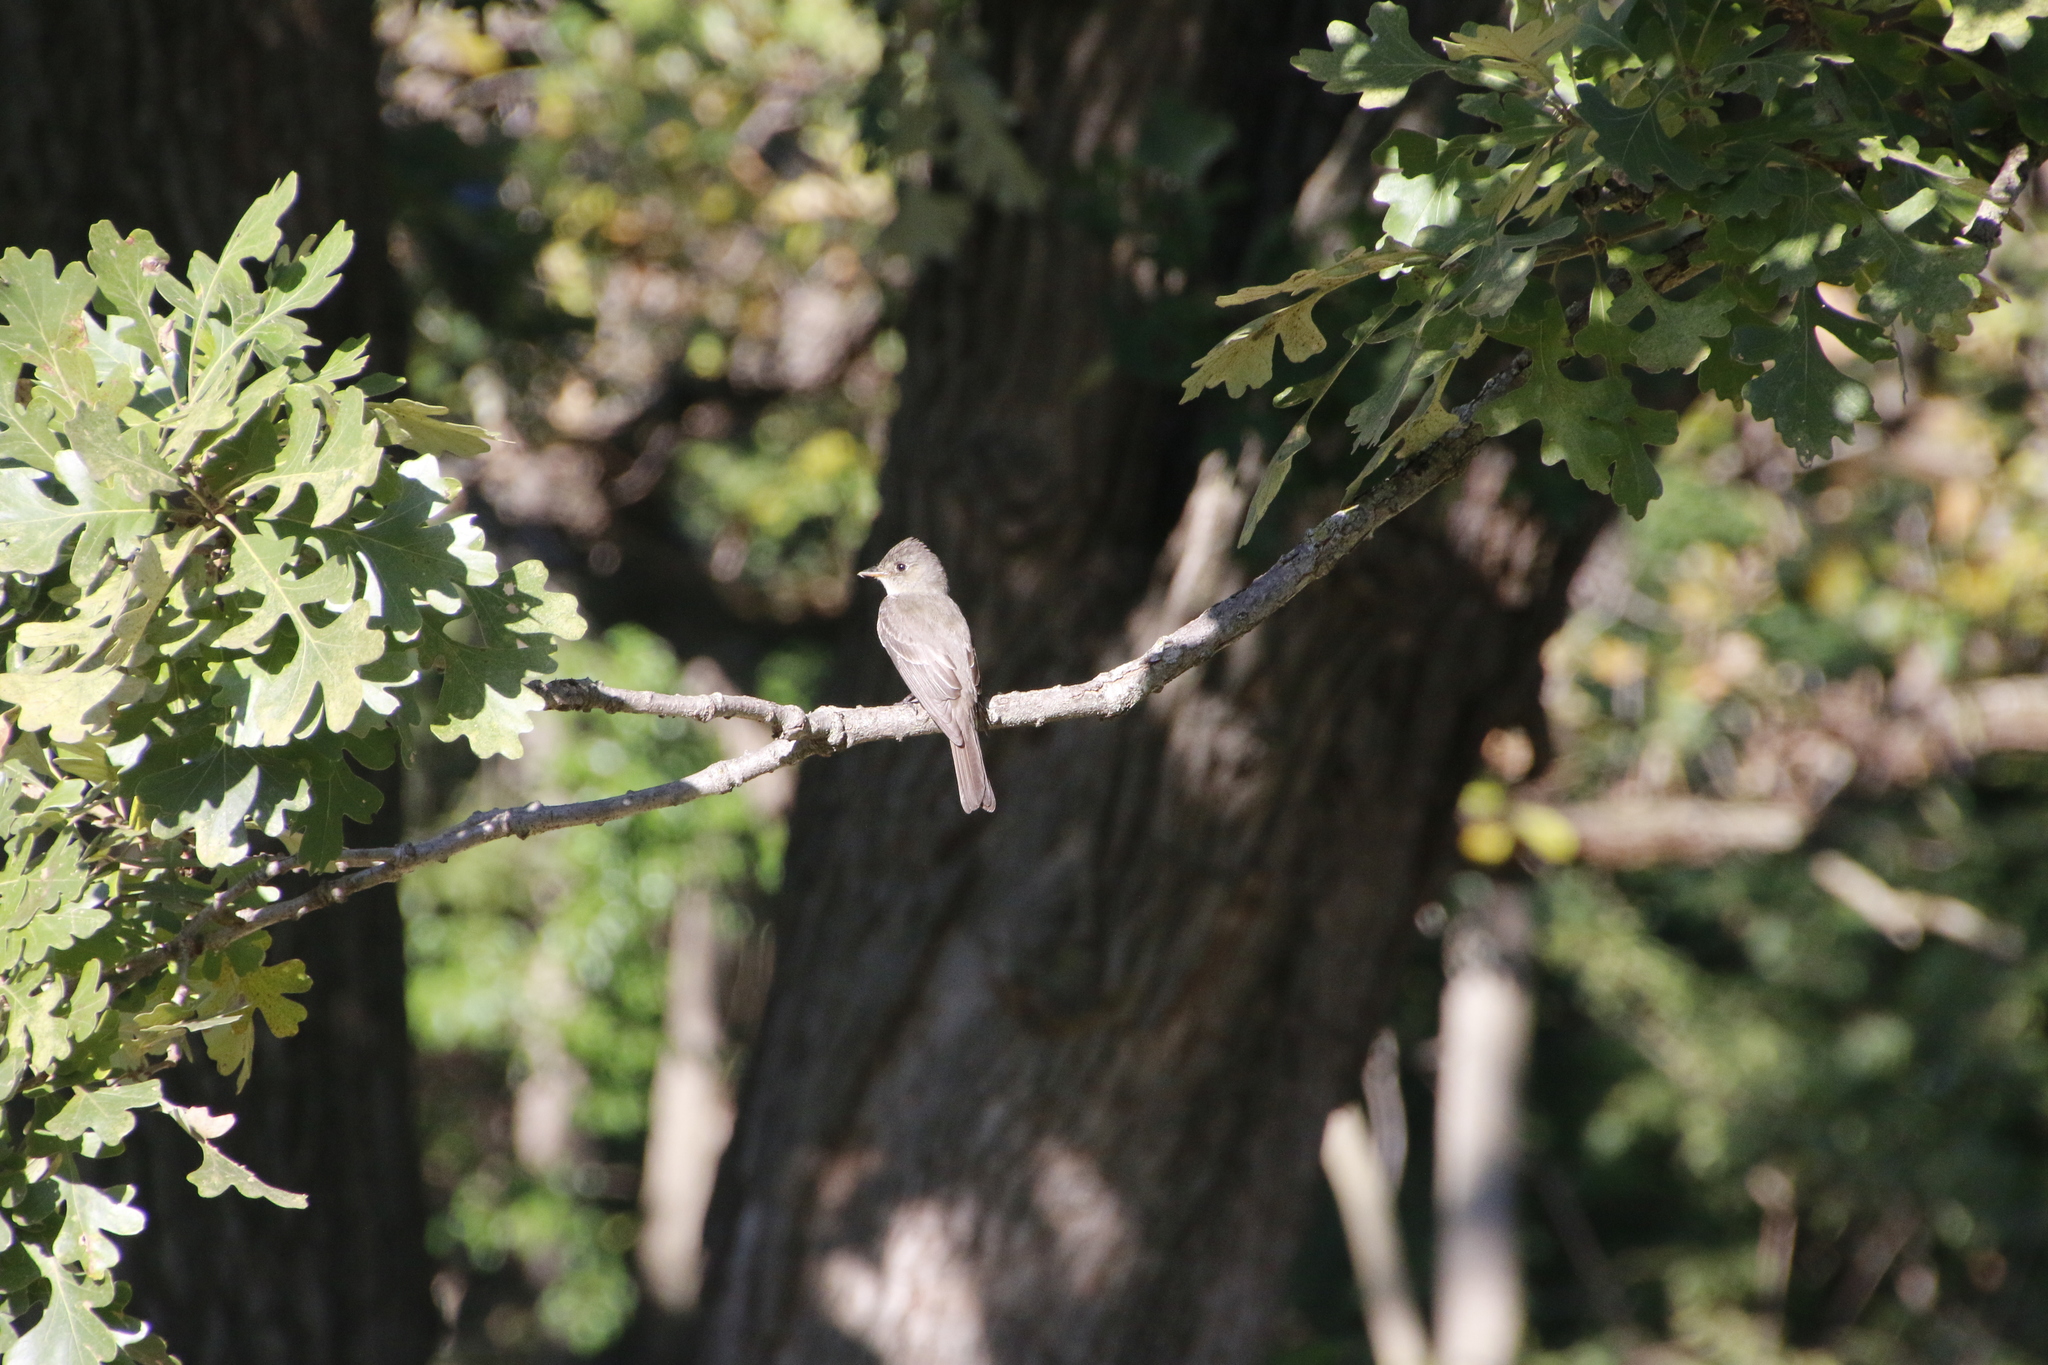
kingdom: Animalia
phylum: Chordata
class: Aves
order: Passeriformes
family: Tyrannidae
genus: Contopus
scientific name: Contopus virens
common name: Eastern wood-pewee
